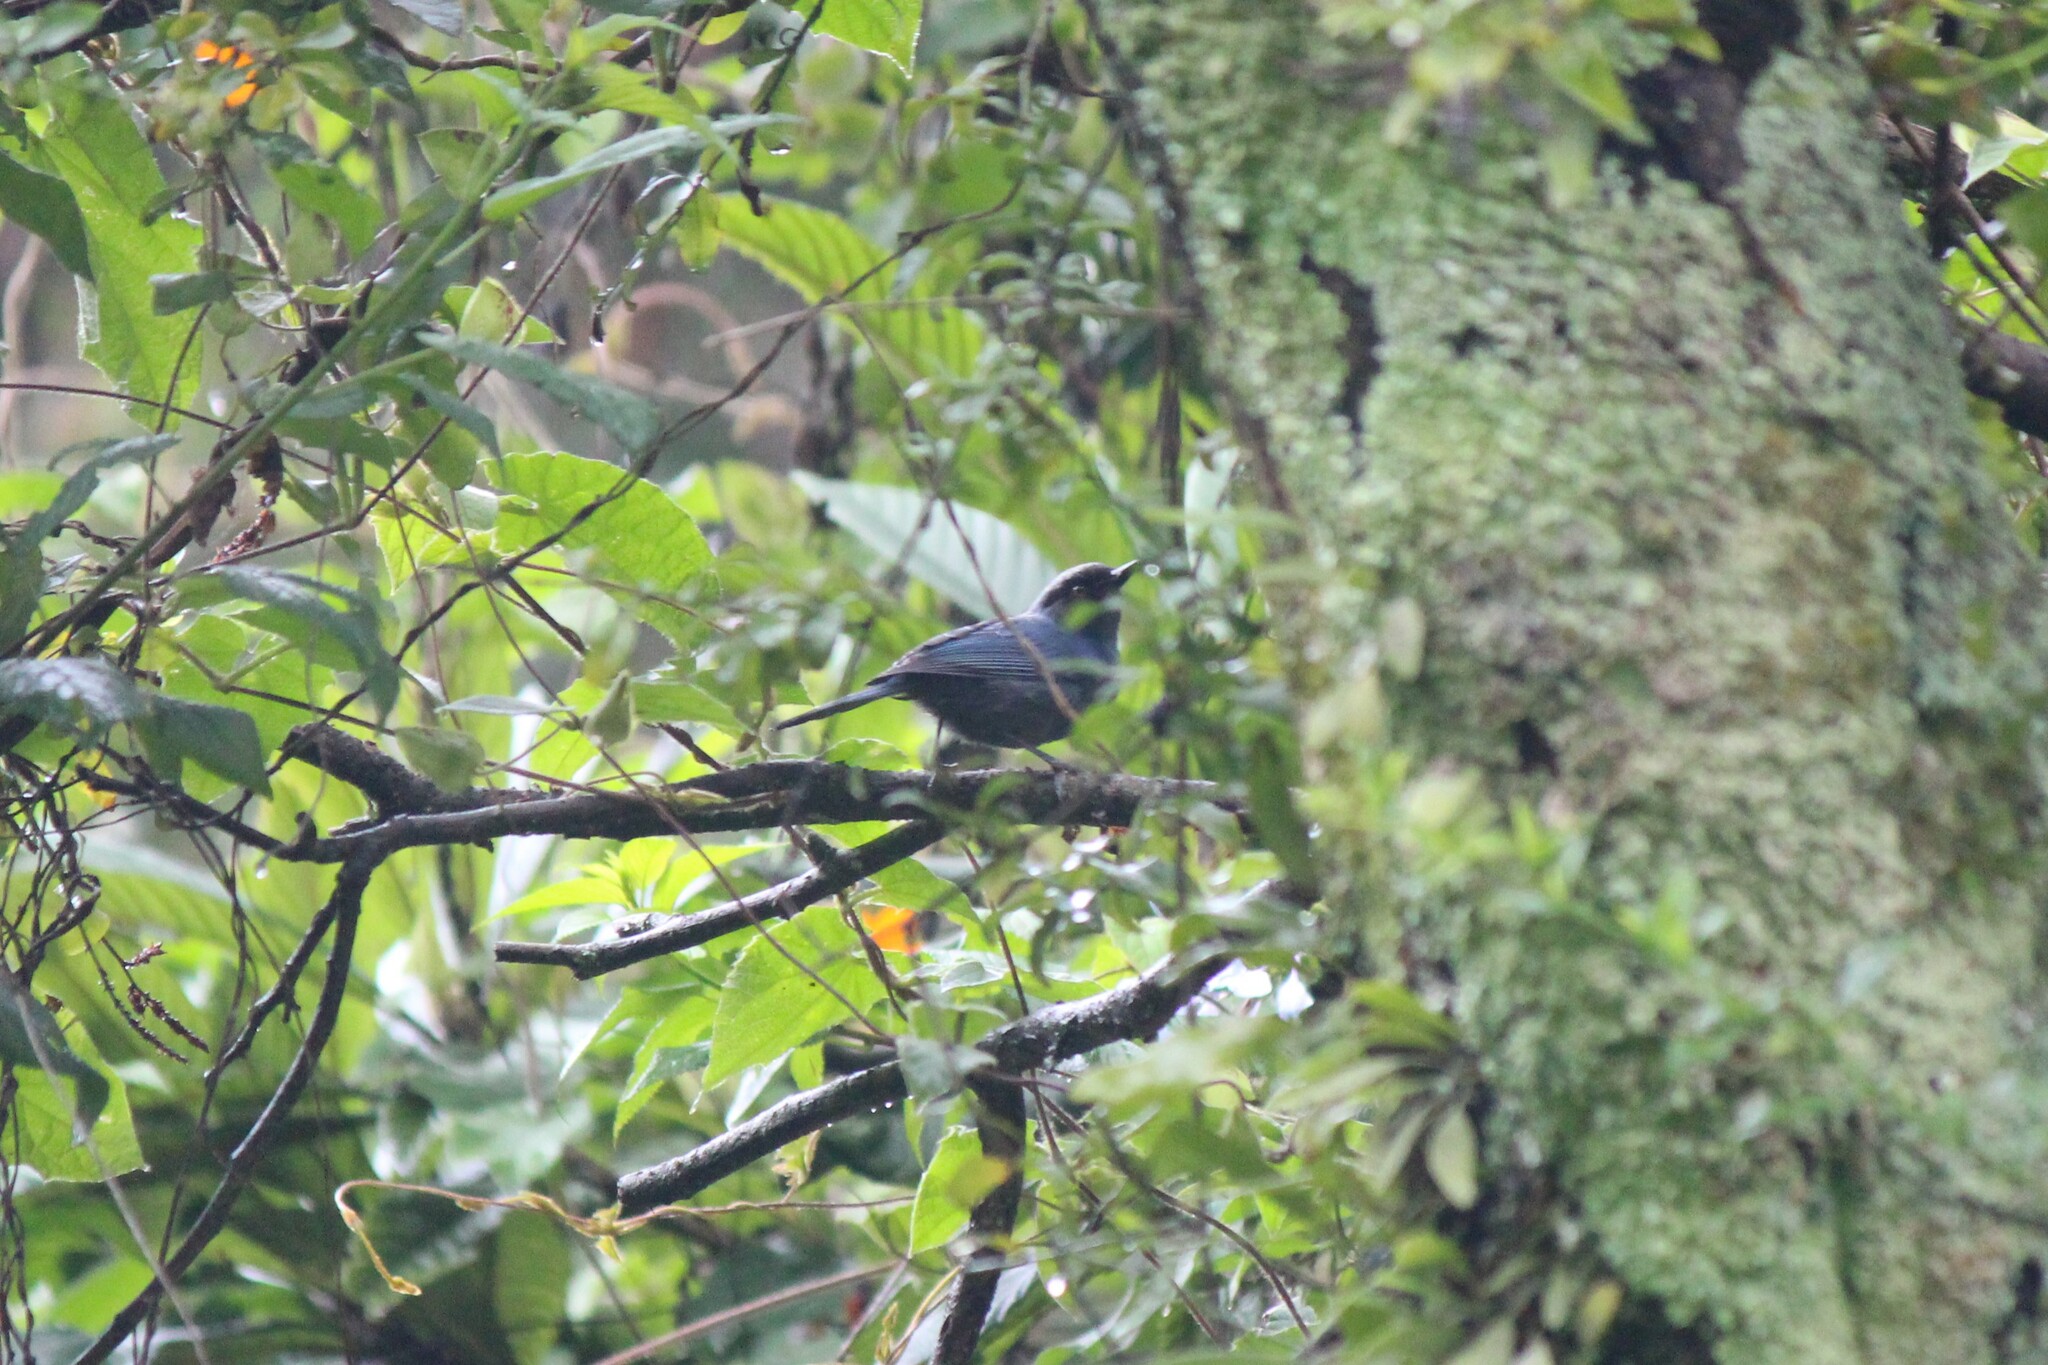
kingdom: Animalia
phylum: Chordata
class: Aves
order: Passeriformes
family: Thraupidae
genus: Diglossa
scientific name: Diglossa cyanea
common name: Masked flowerpiercer
